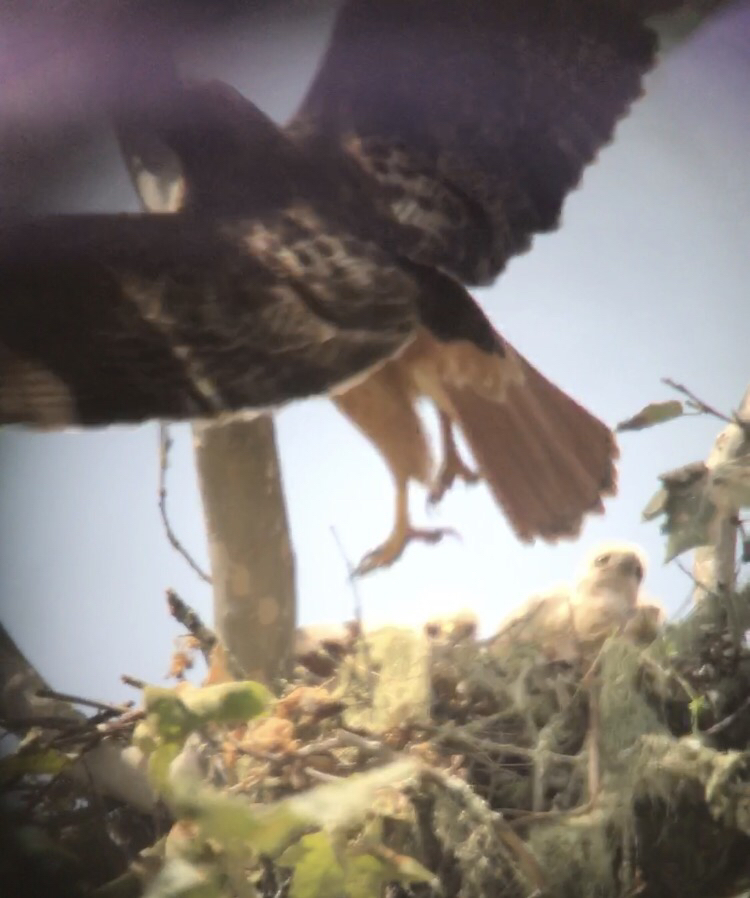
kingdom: Animalia
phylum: Chordata
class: Aves
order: Accipitriformes
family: Accipitridae
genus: Buteo
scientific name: Buteo jamaicensis
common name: Red-tailed hawk
